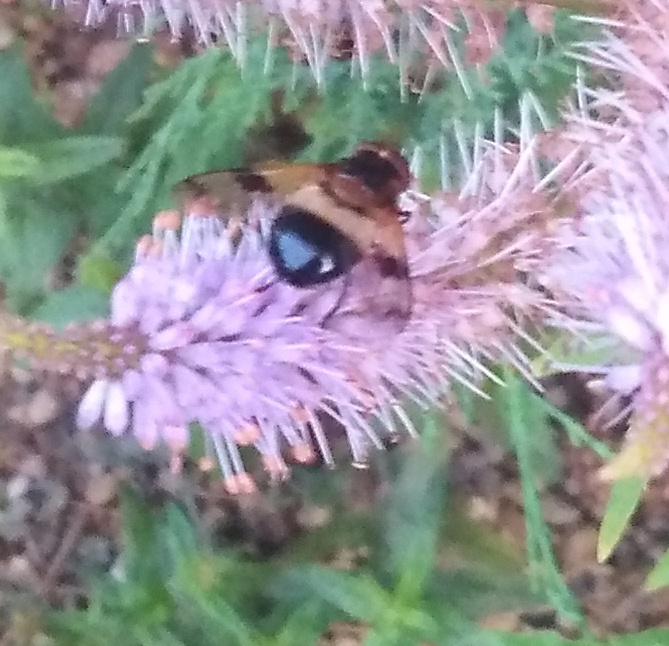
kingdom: Animalia
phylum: Arthropoda
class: Insecta
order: Diptera
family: Syrphidae
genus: Volucella
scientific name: Volucella pellucens
